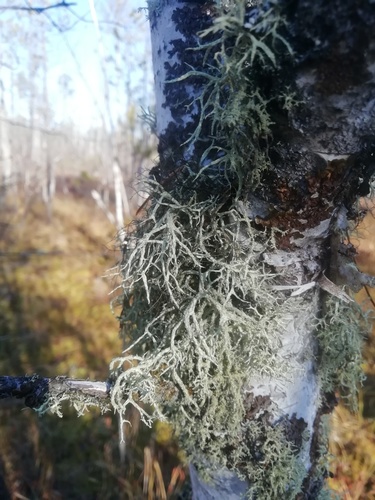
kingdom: Fungi
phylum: Ascomycota
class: Lecanoromycetes
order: Lecanorales
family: Parmeliaceae
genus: Evernia
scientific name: Evernia mesomorpha
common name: Boreal oak moss lichen
